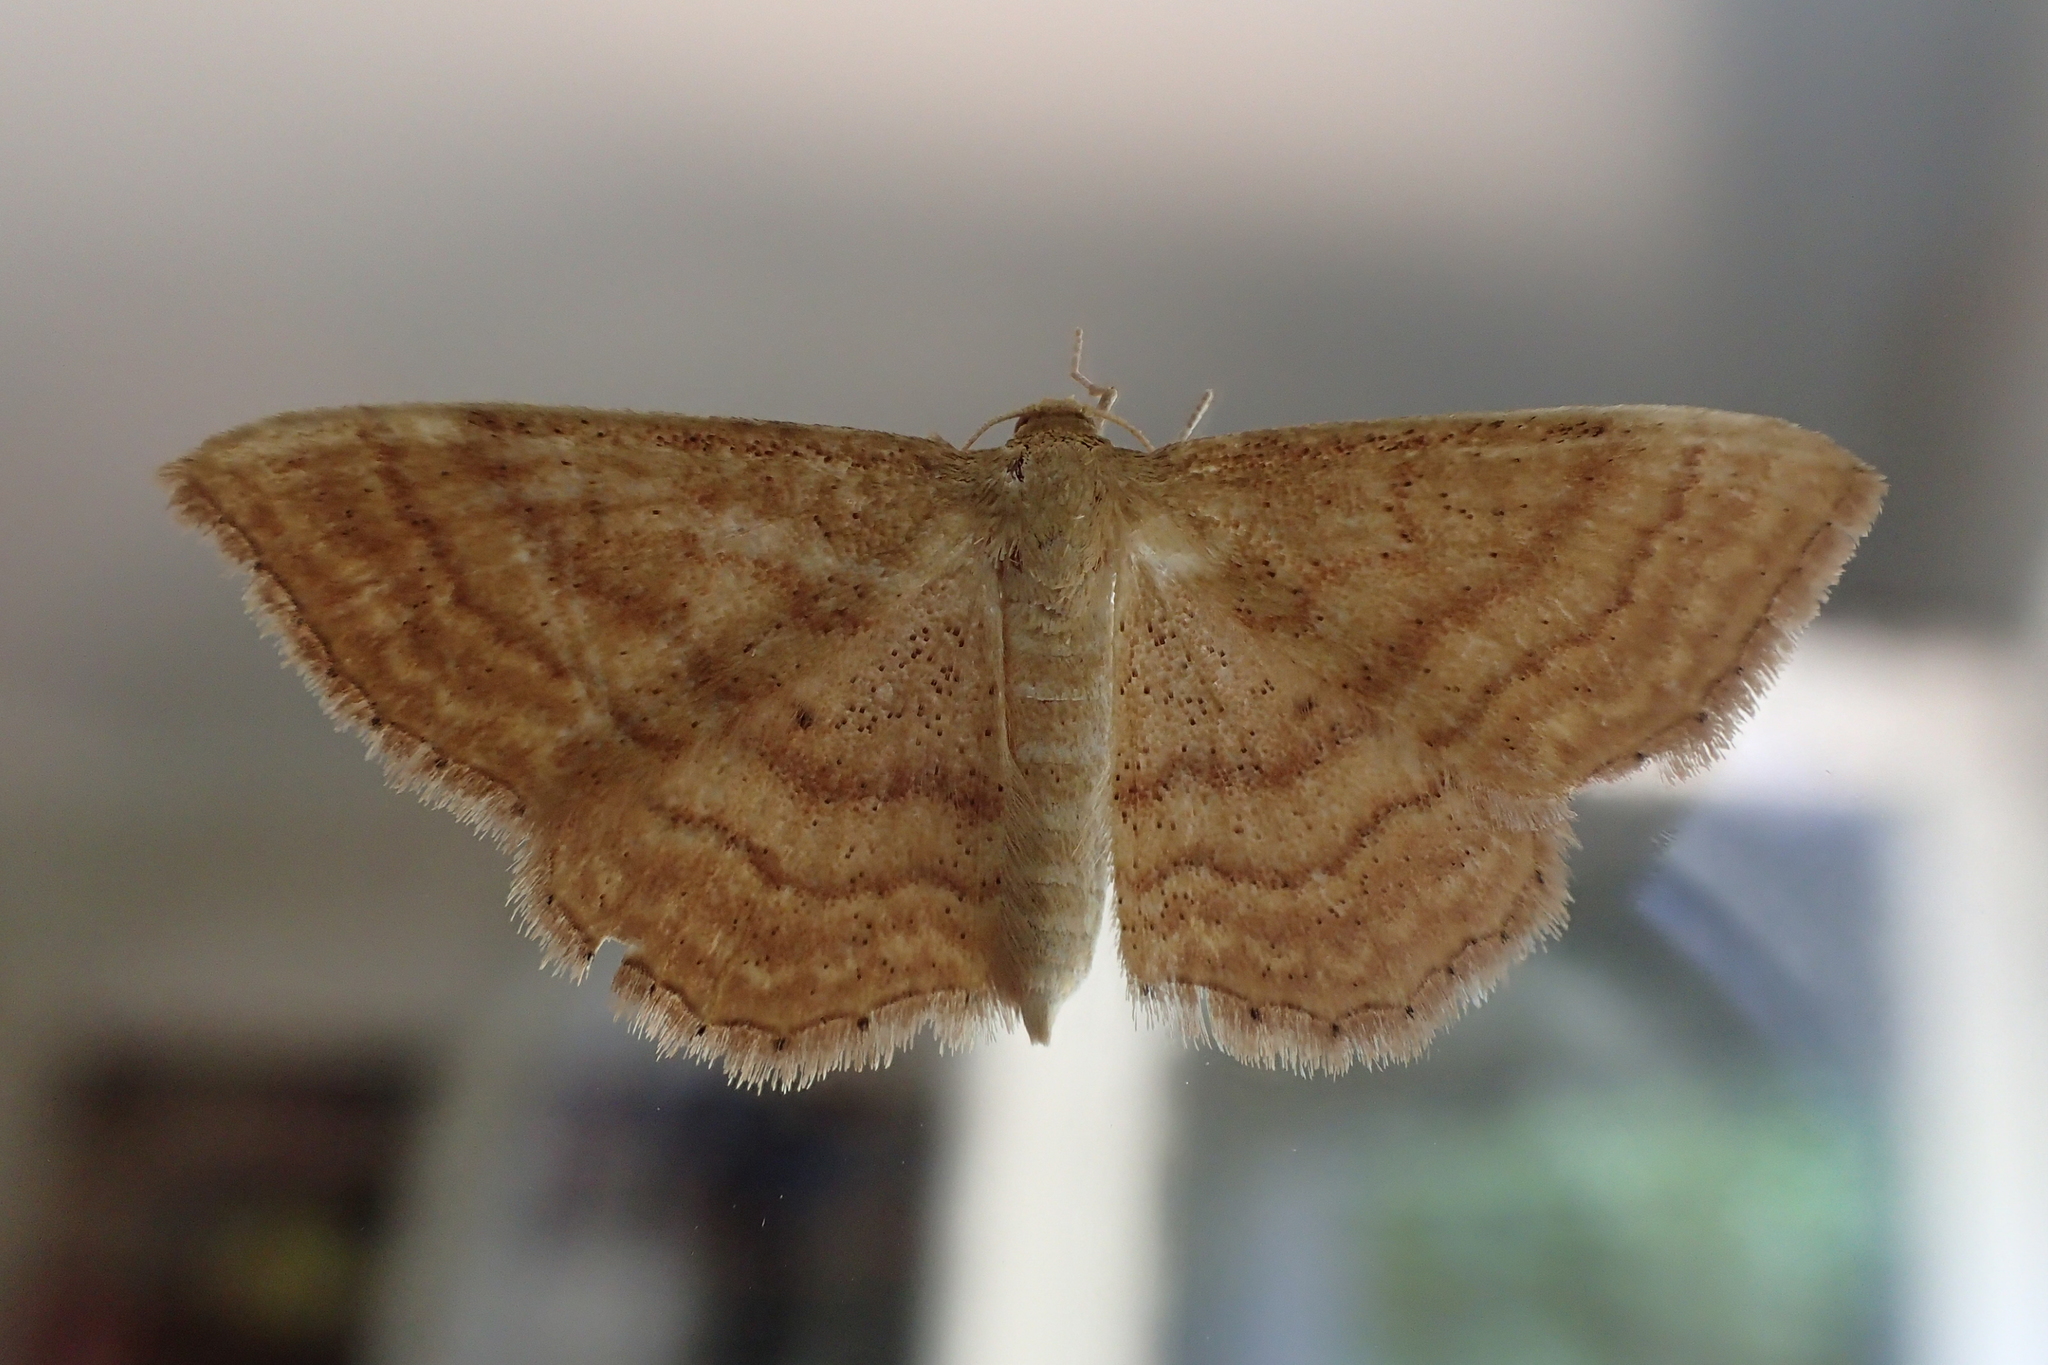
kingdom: Animalia
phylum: Arthropoda
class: Insecta
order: Lepidoptera
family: Geometridae
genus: Idaea
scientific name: Idaea ochrata
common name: Bright wave
